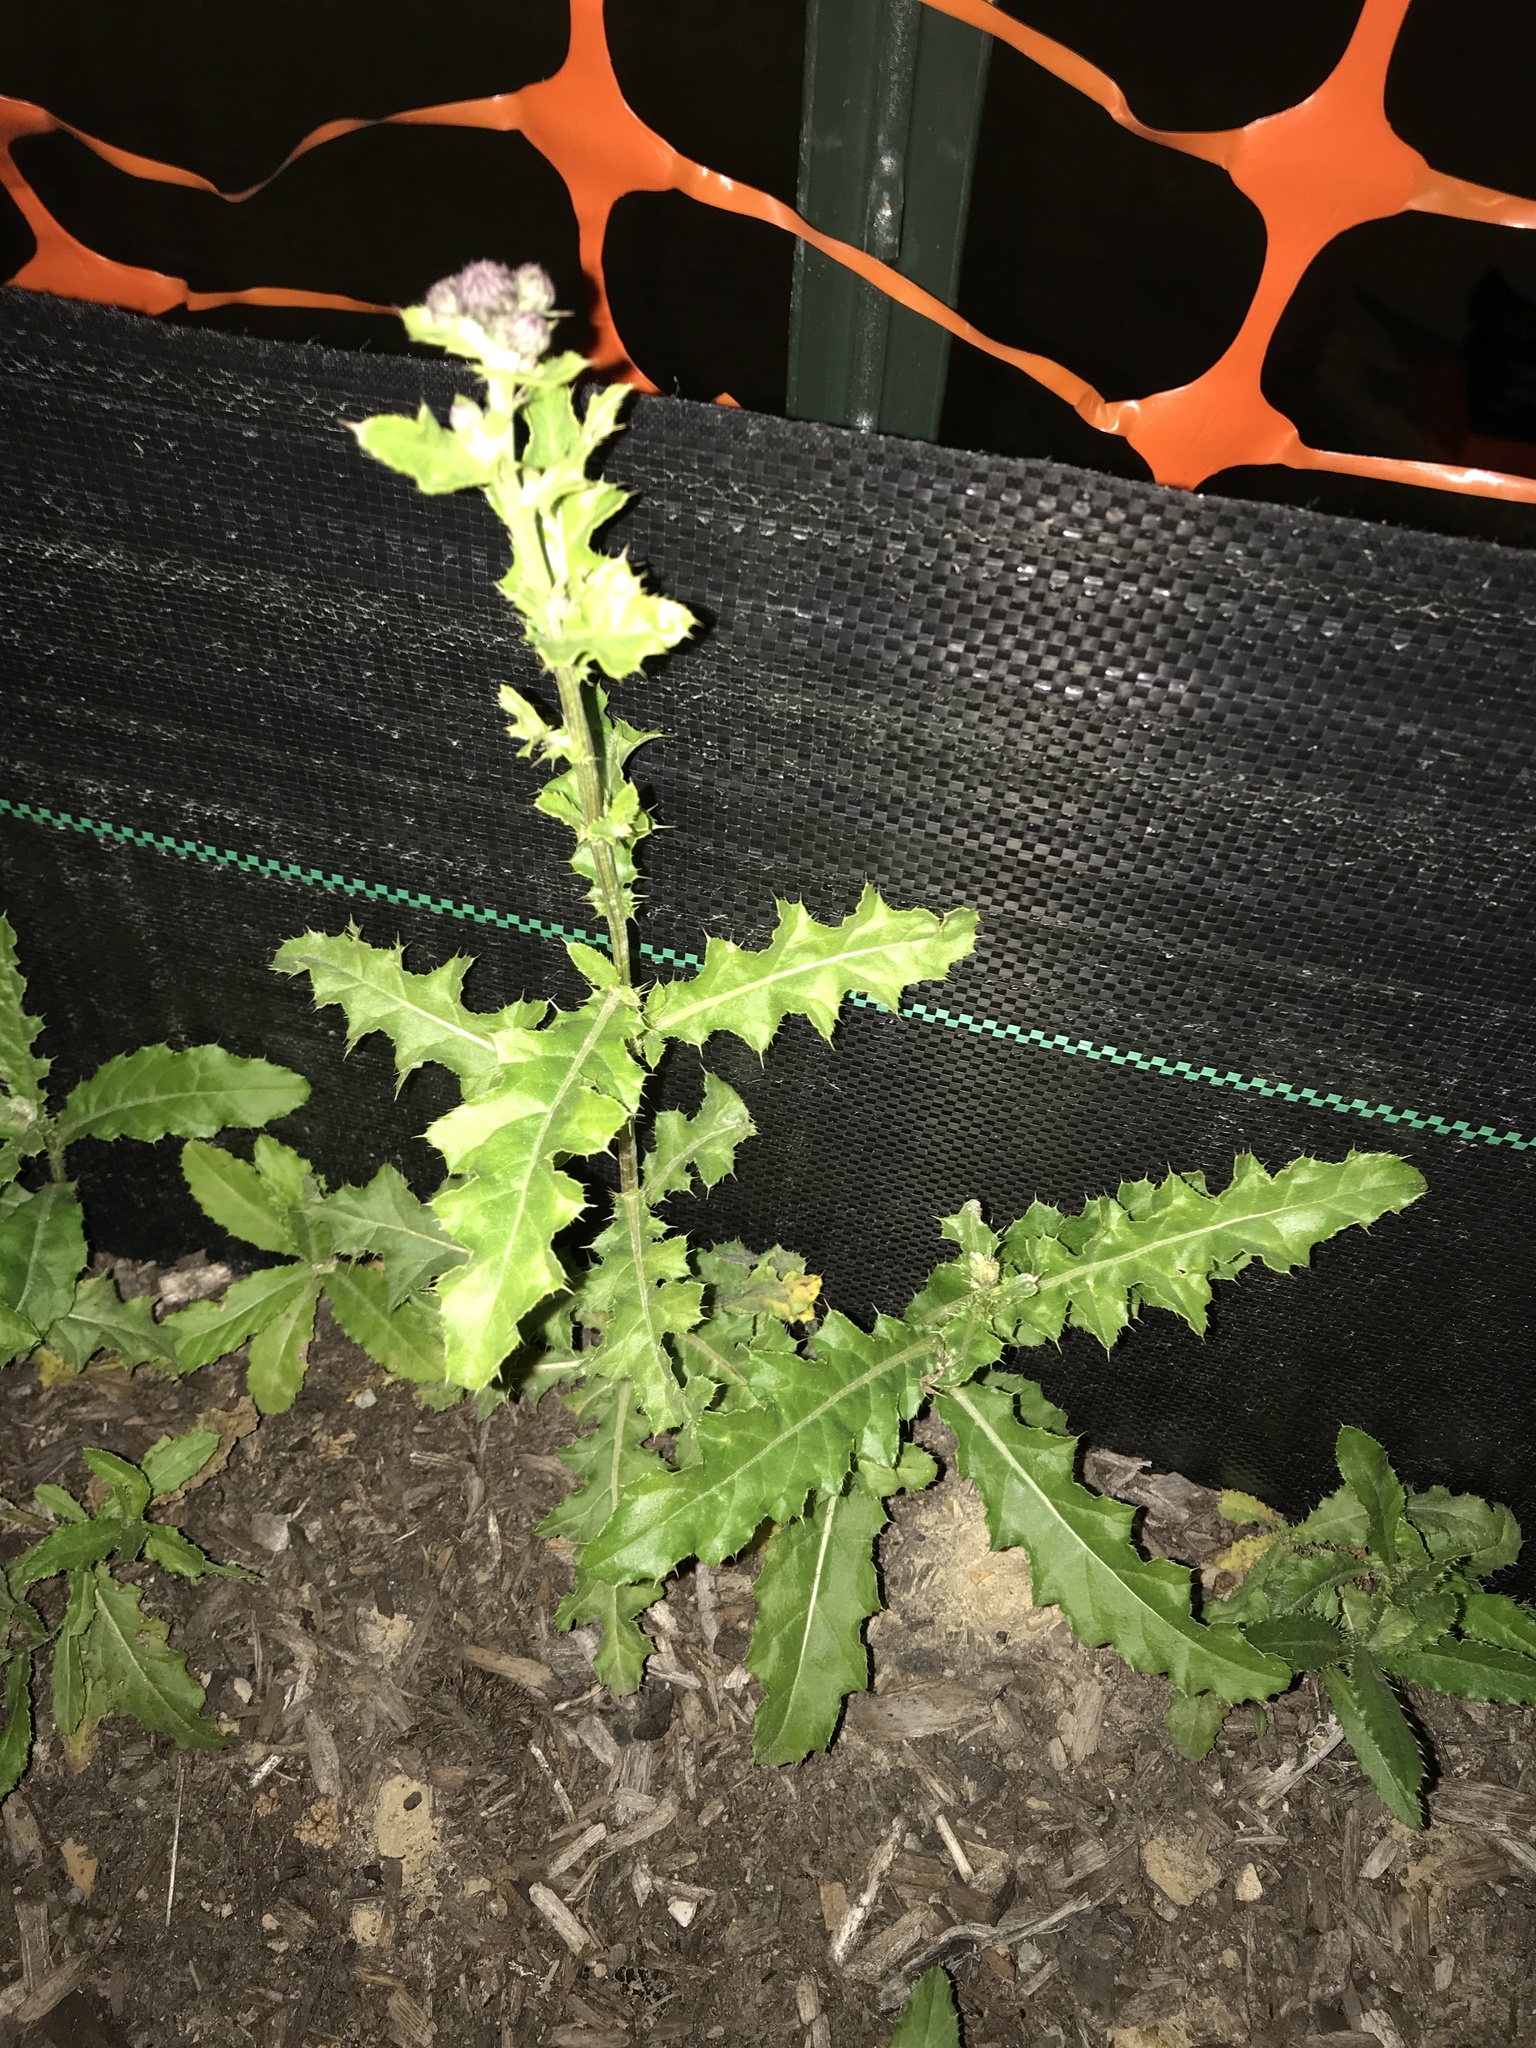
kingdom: Plantae
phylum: Tracheophyta
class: Magnoliopsida
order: Asterales
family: Asteraceae
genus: Cirsium
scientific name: Cirsium arvense
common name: Creeping thistle
